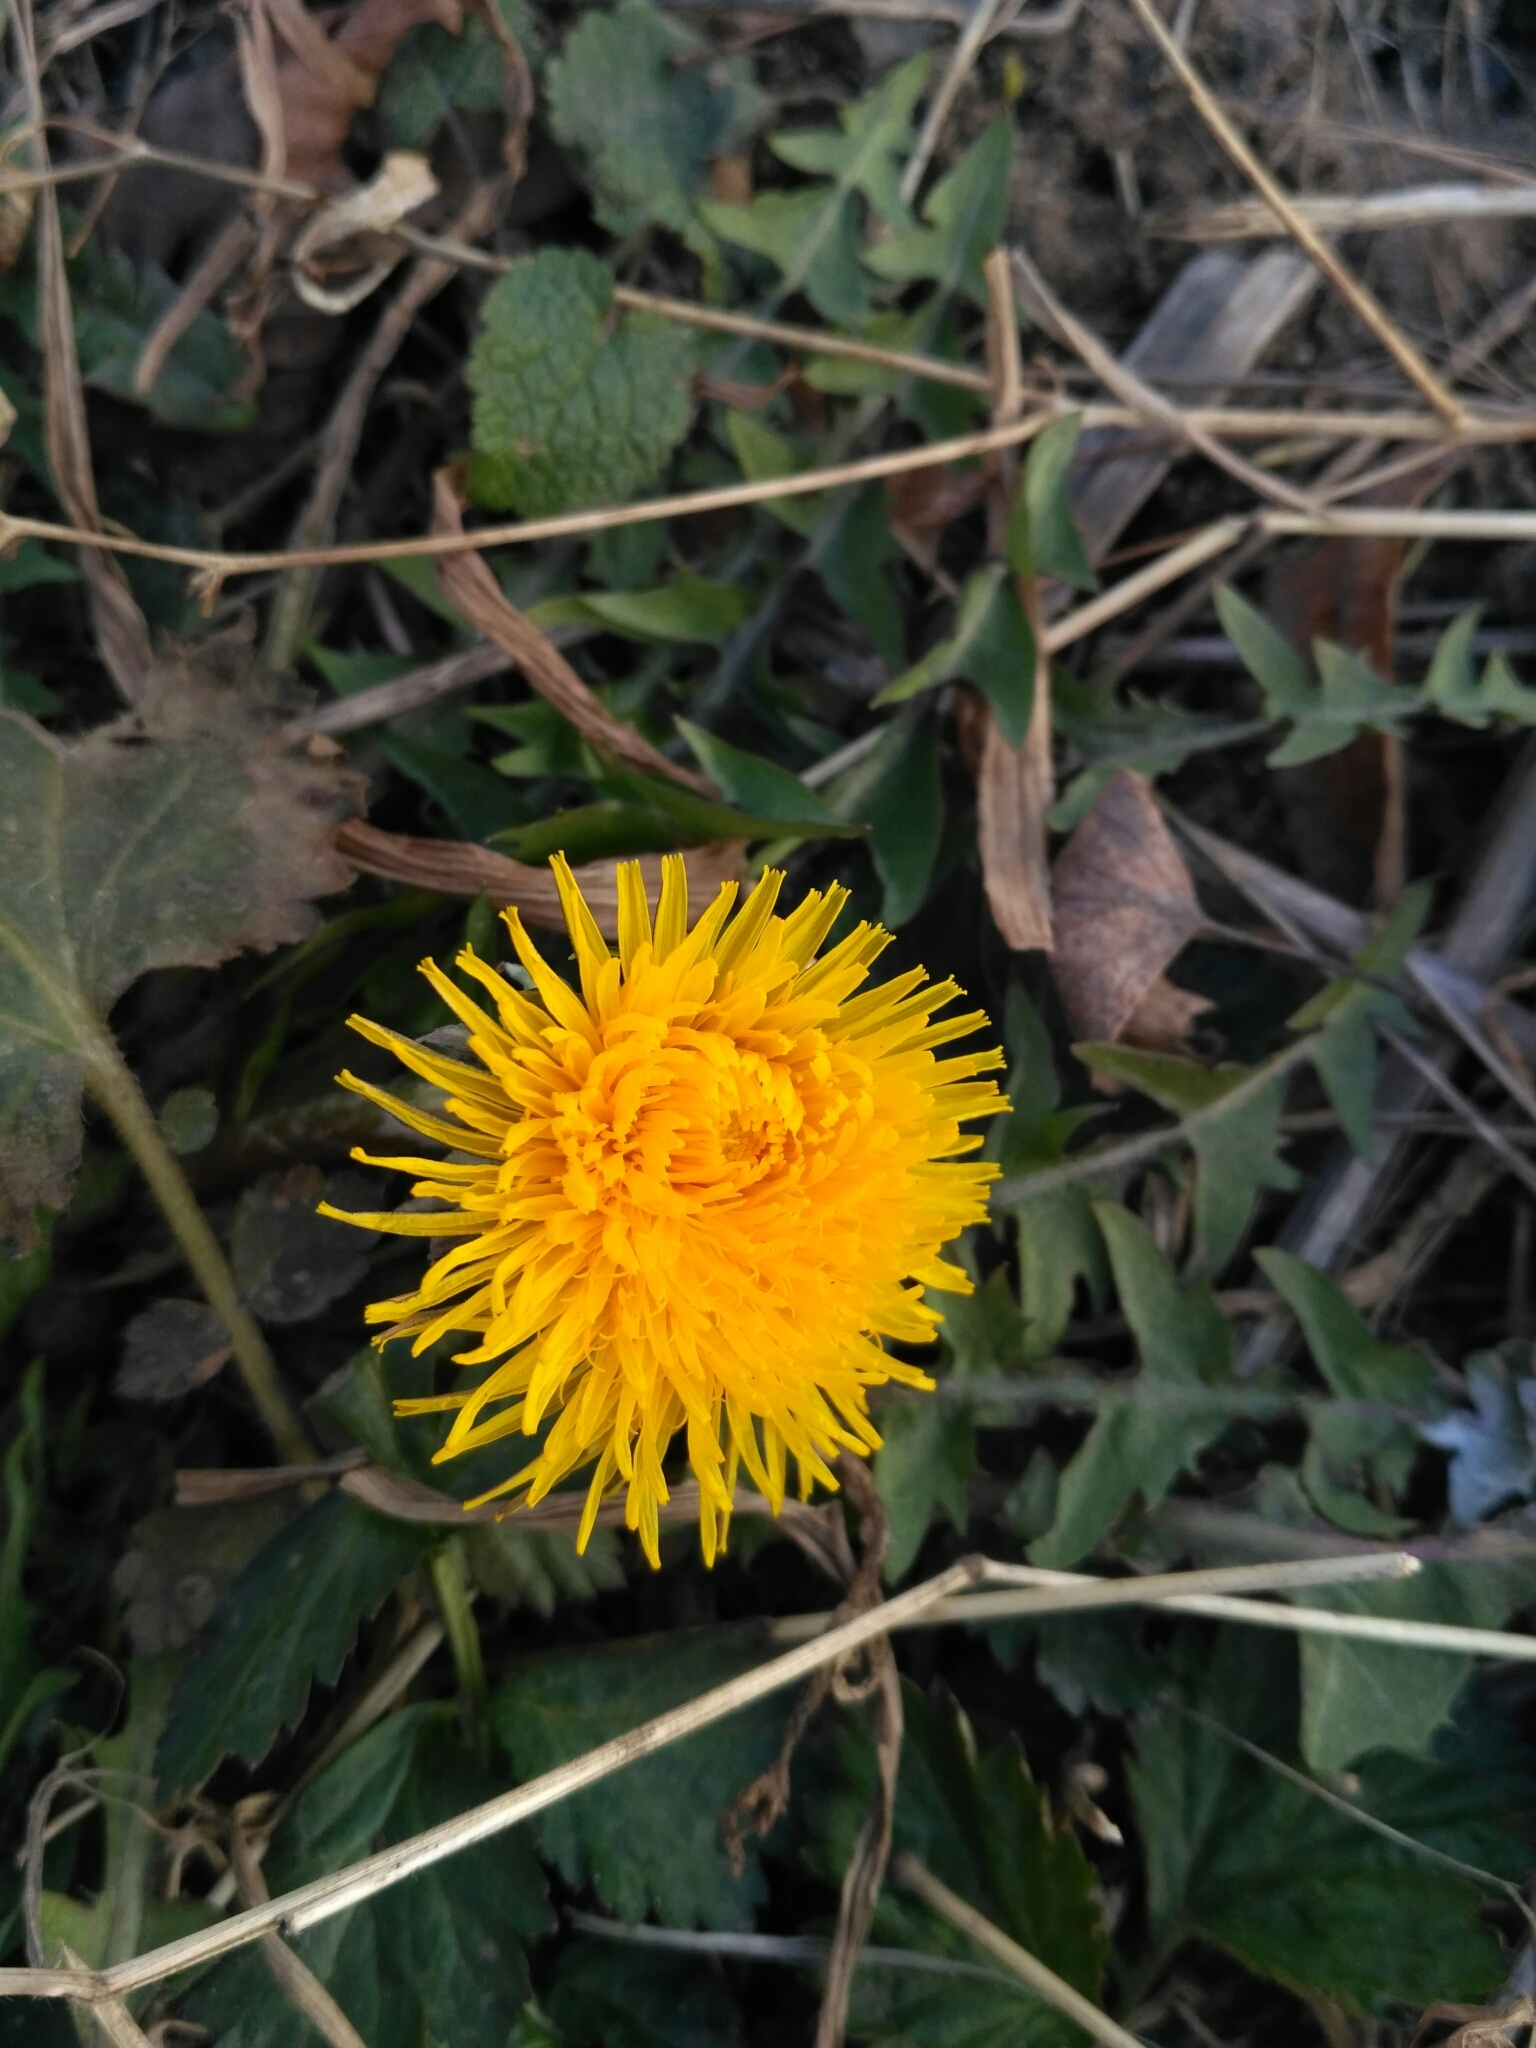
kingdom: Plantae
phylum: Tracheophyta
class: Magnoliopsida
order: Asterales
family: Asteraceae
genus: Taraxacum
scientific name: Taraxacum officinale
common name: Common dandelion
